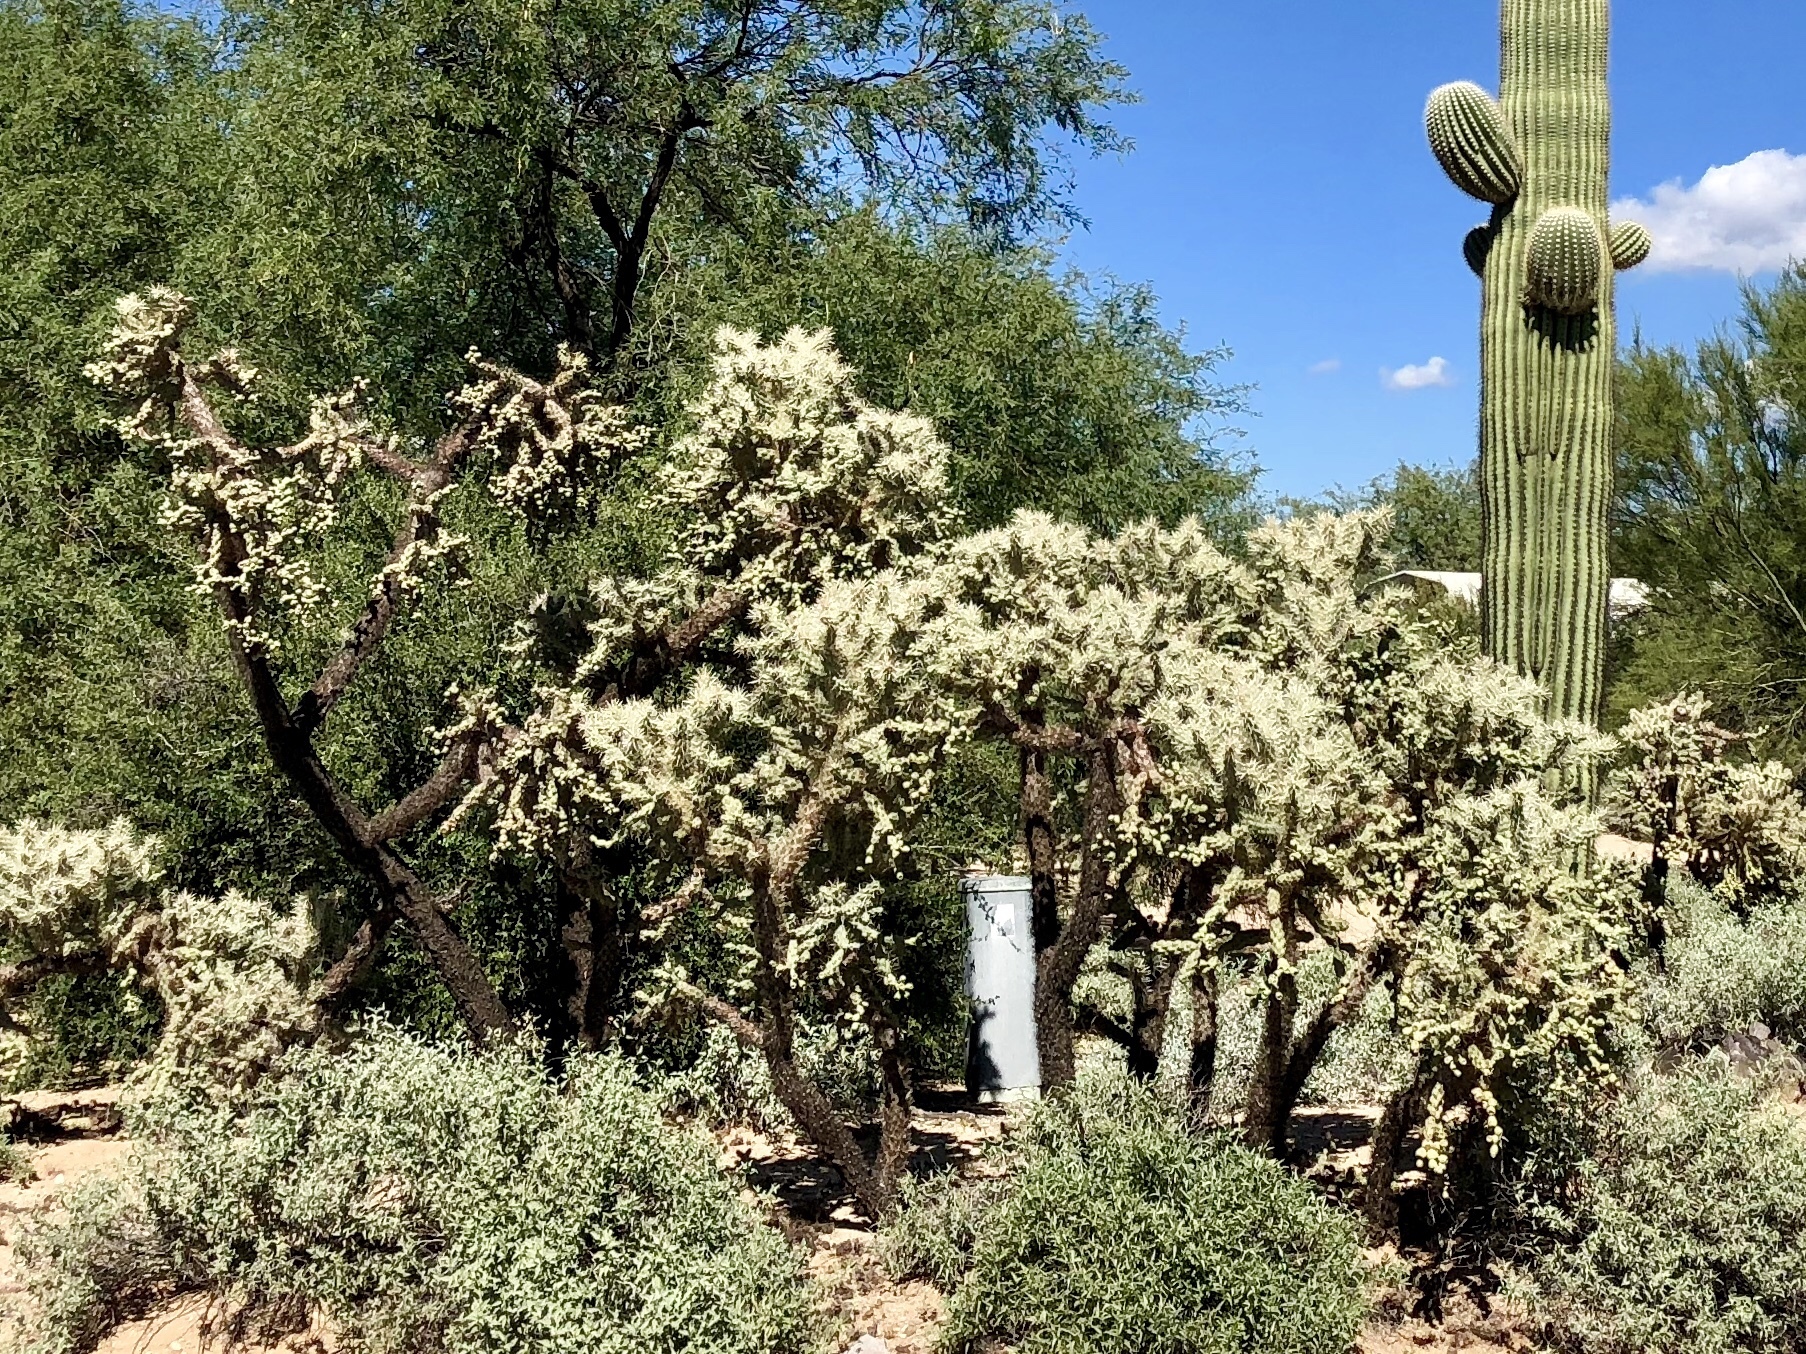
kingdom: Plantae
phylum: Tracheophyta
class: Magnoliopsida
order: Caryophyllales
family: Cactaceae
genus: Cylindropuntia
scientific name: Cylindropuntia fulgida
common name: Jumping cholla
